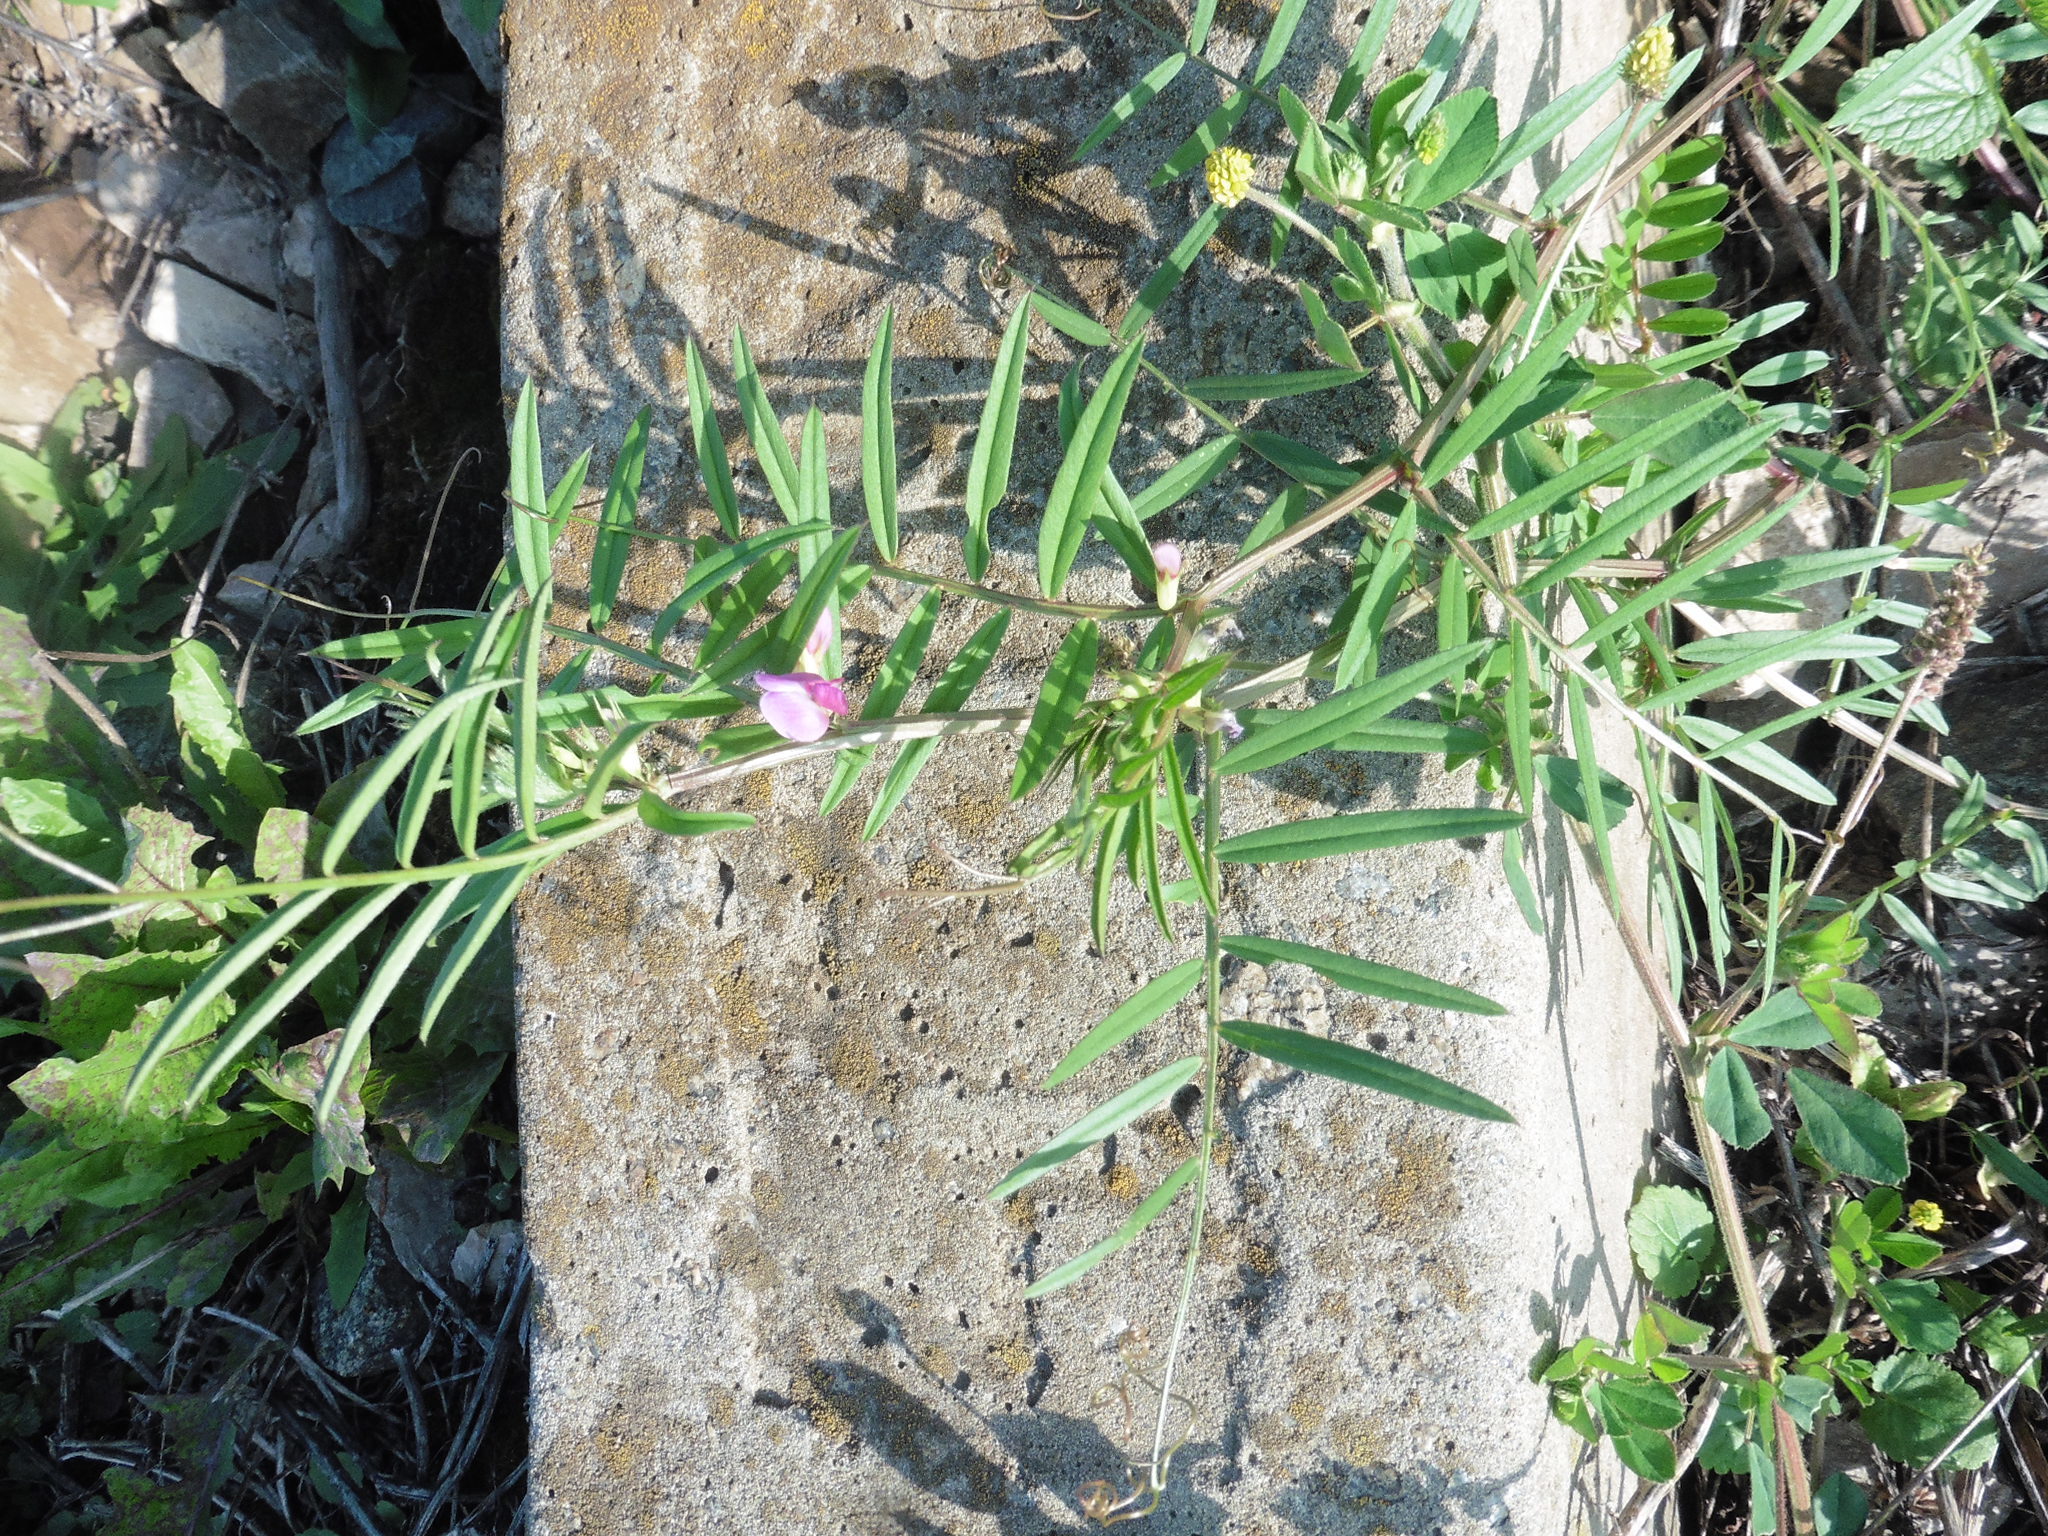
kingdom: Plantae
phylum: Tracheophyta
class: Magnoliopsida
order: Fabales
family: Fabaceae
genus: Vicia
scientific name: Vicia sativa
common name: Garden vetch
